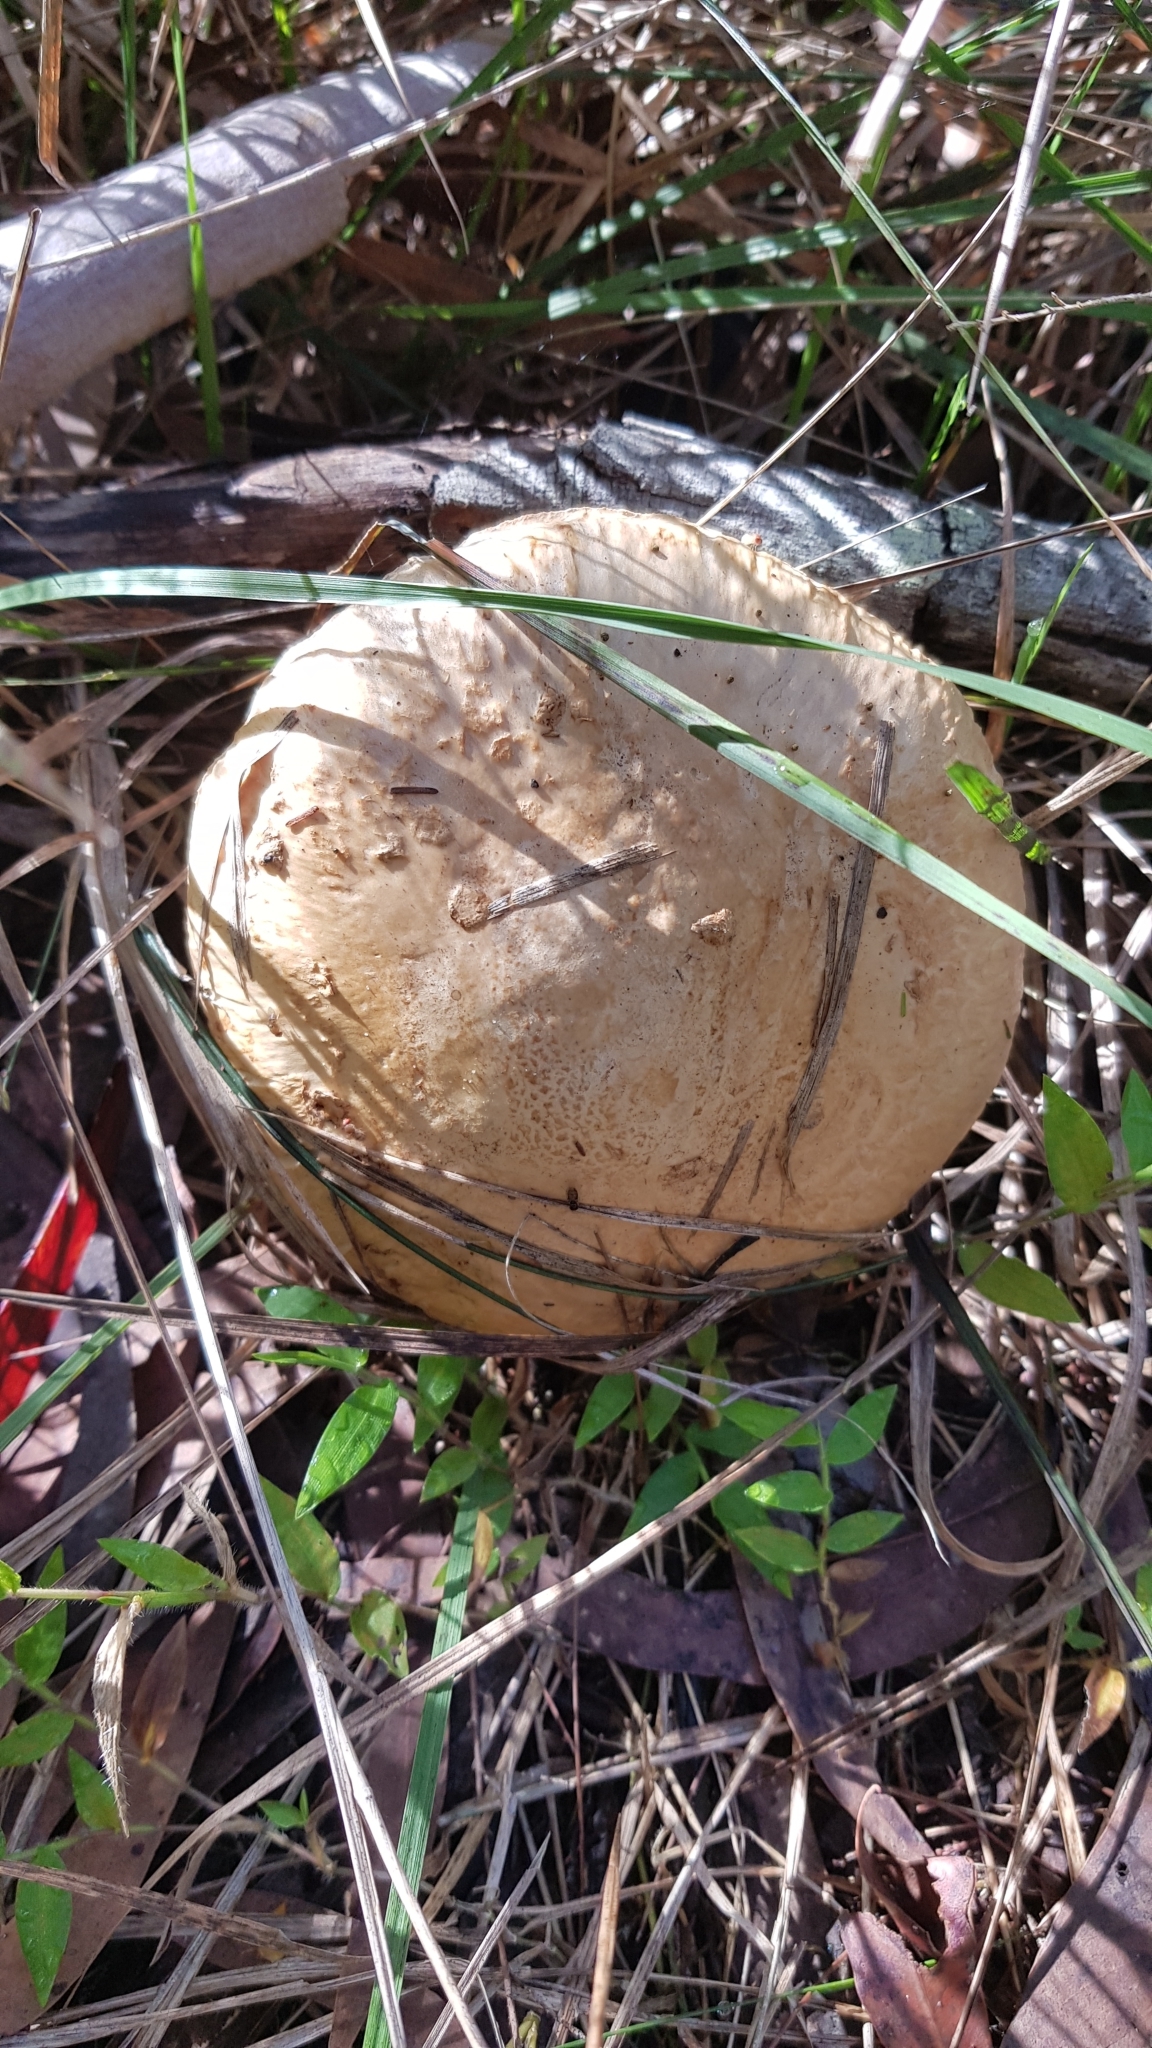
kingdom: Fungi
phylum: Basidiomycota
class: Agaricomycetes
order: Agaricales
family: Amanitaceae
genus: Amanita
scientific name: Amanita ochrophylla
